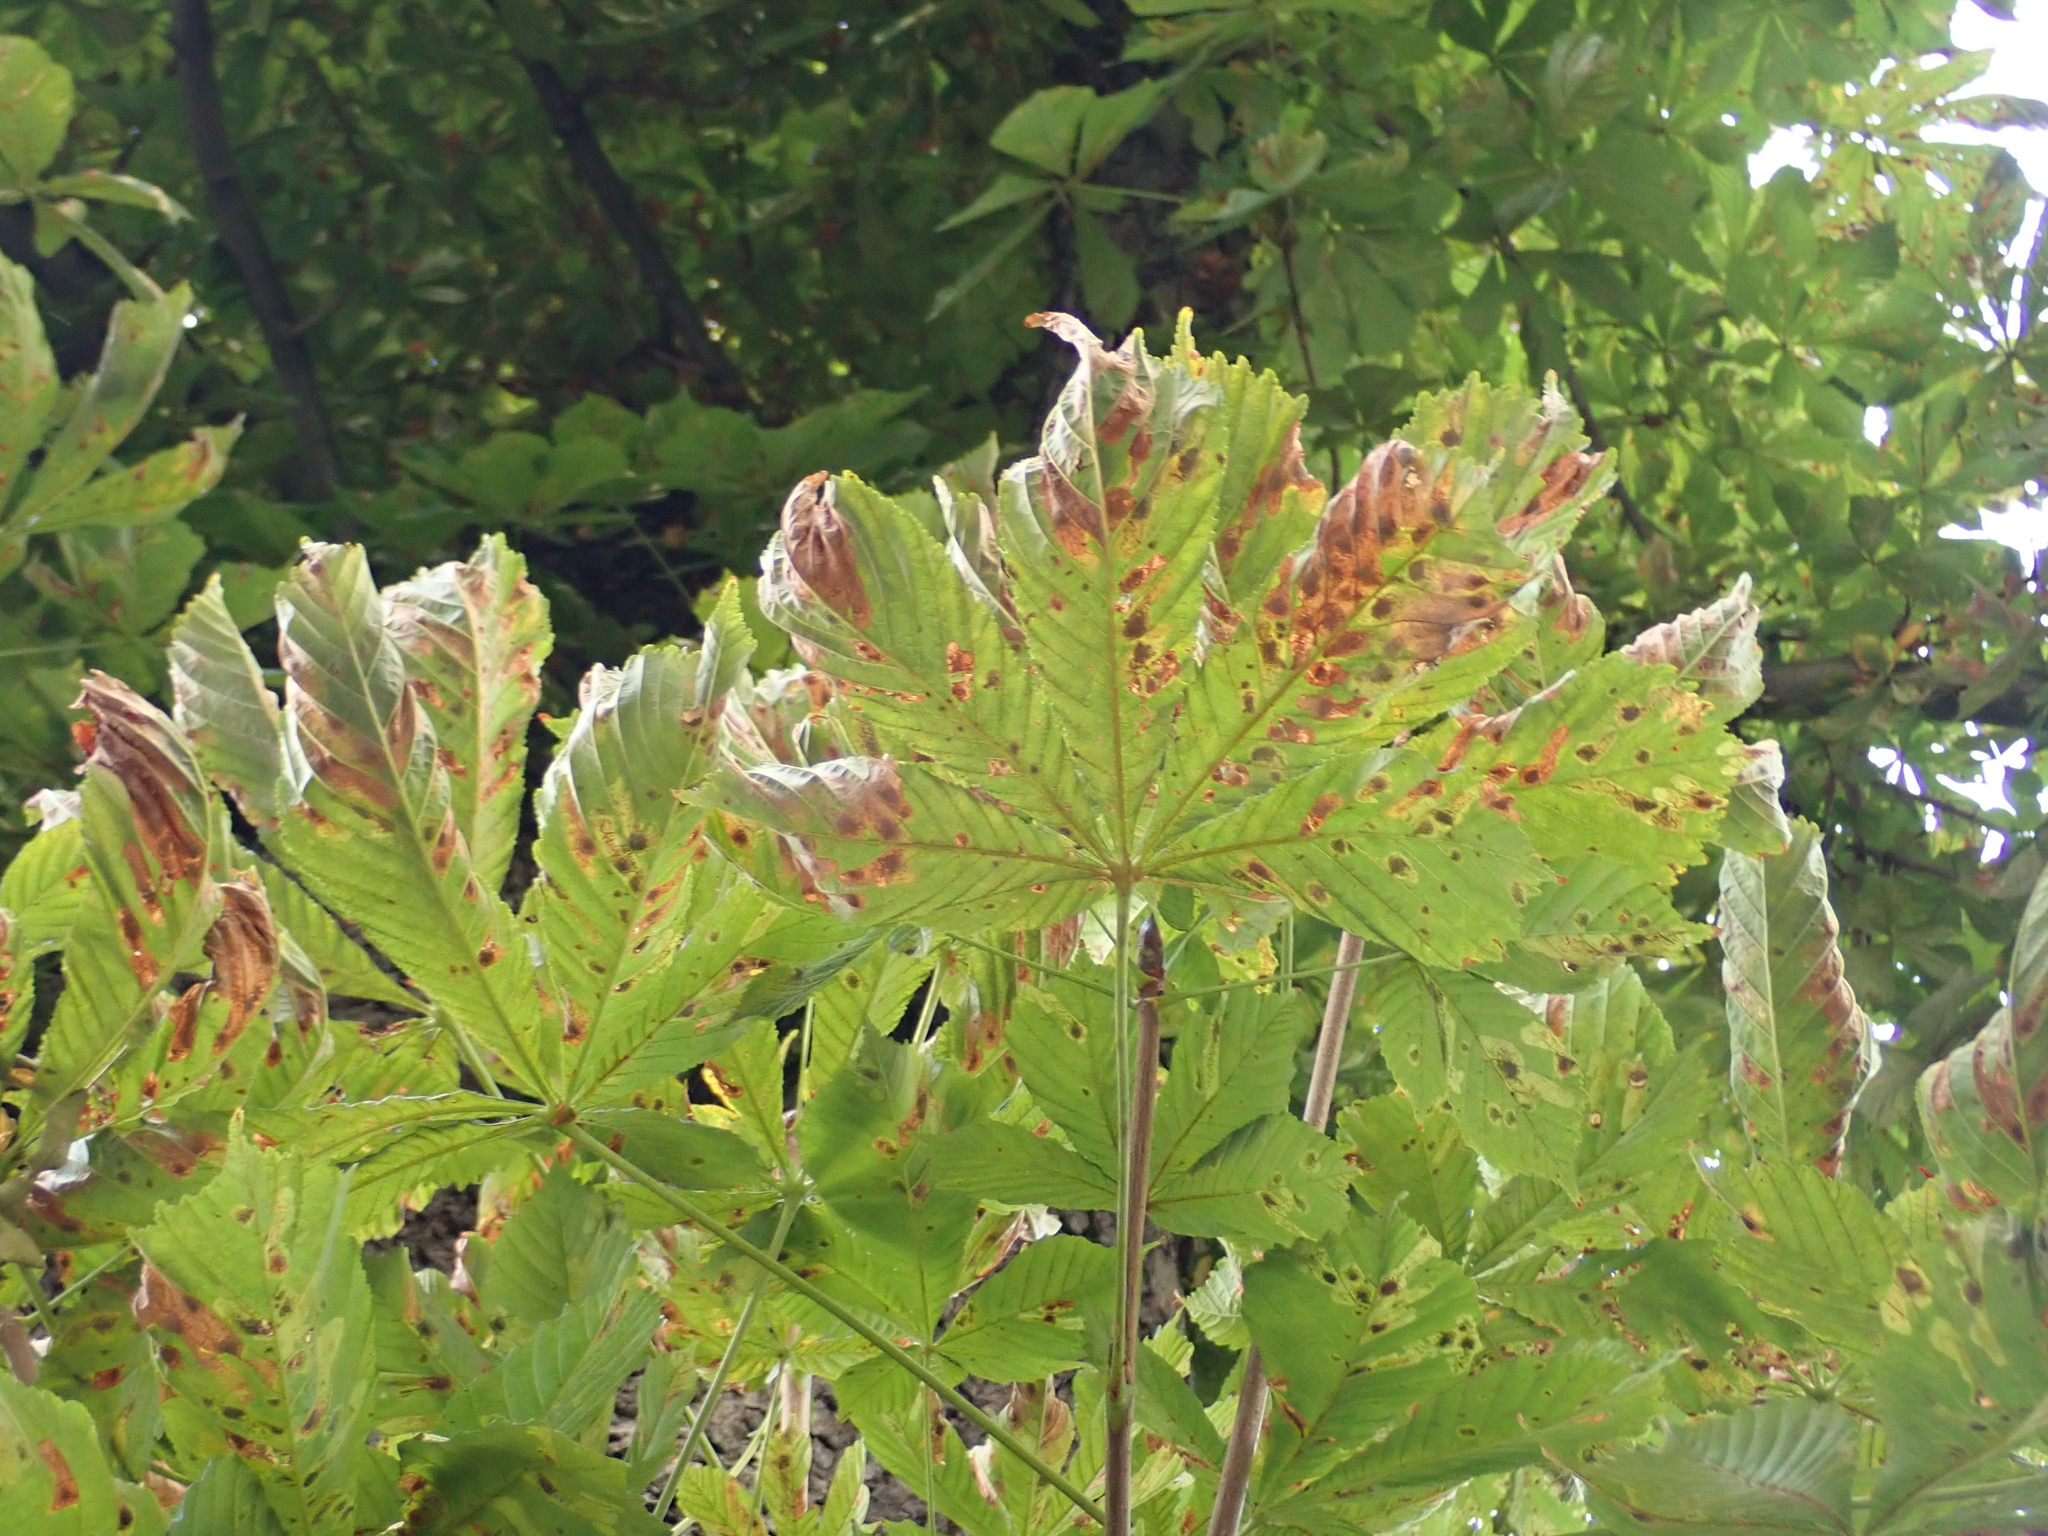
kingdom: Plantae
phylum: Tracheophyta
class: Magnoliopsida
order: Sapindales
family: Sapindaceae
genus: Aesculus
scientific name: Aesculus hippocastanum
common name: Horse-chestnut
